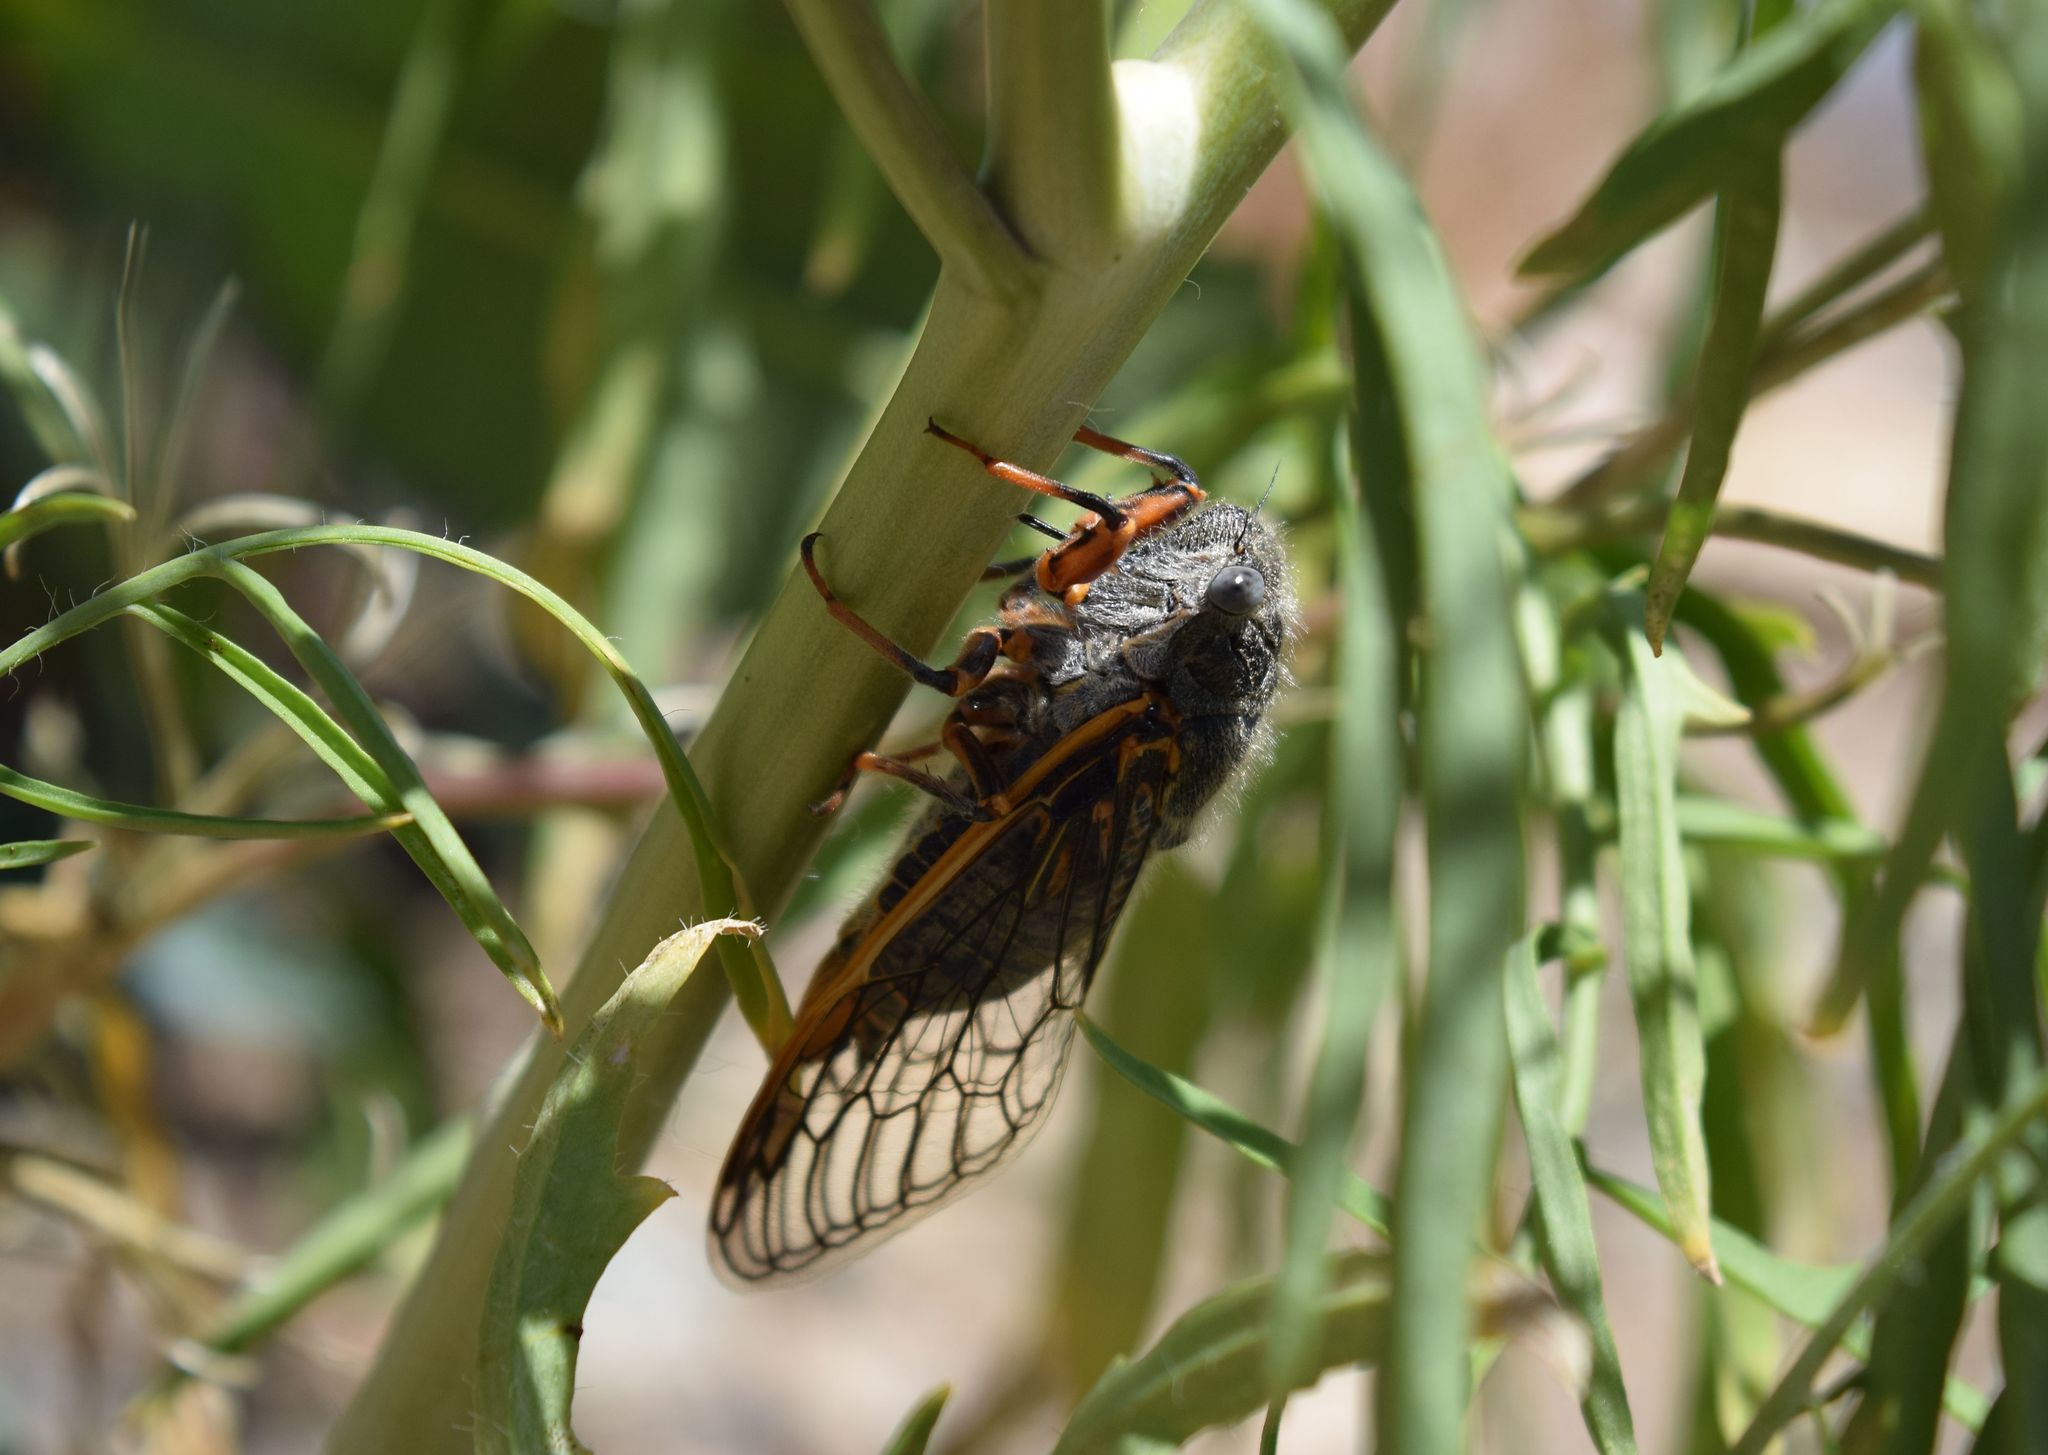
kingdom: Animalia
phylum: Arthropoda
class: Insecta
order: Hemiptera
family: Cicadidae
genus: Okanagana
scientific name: Okanagana magnifica
